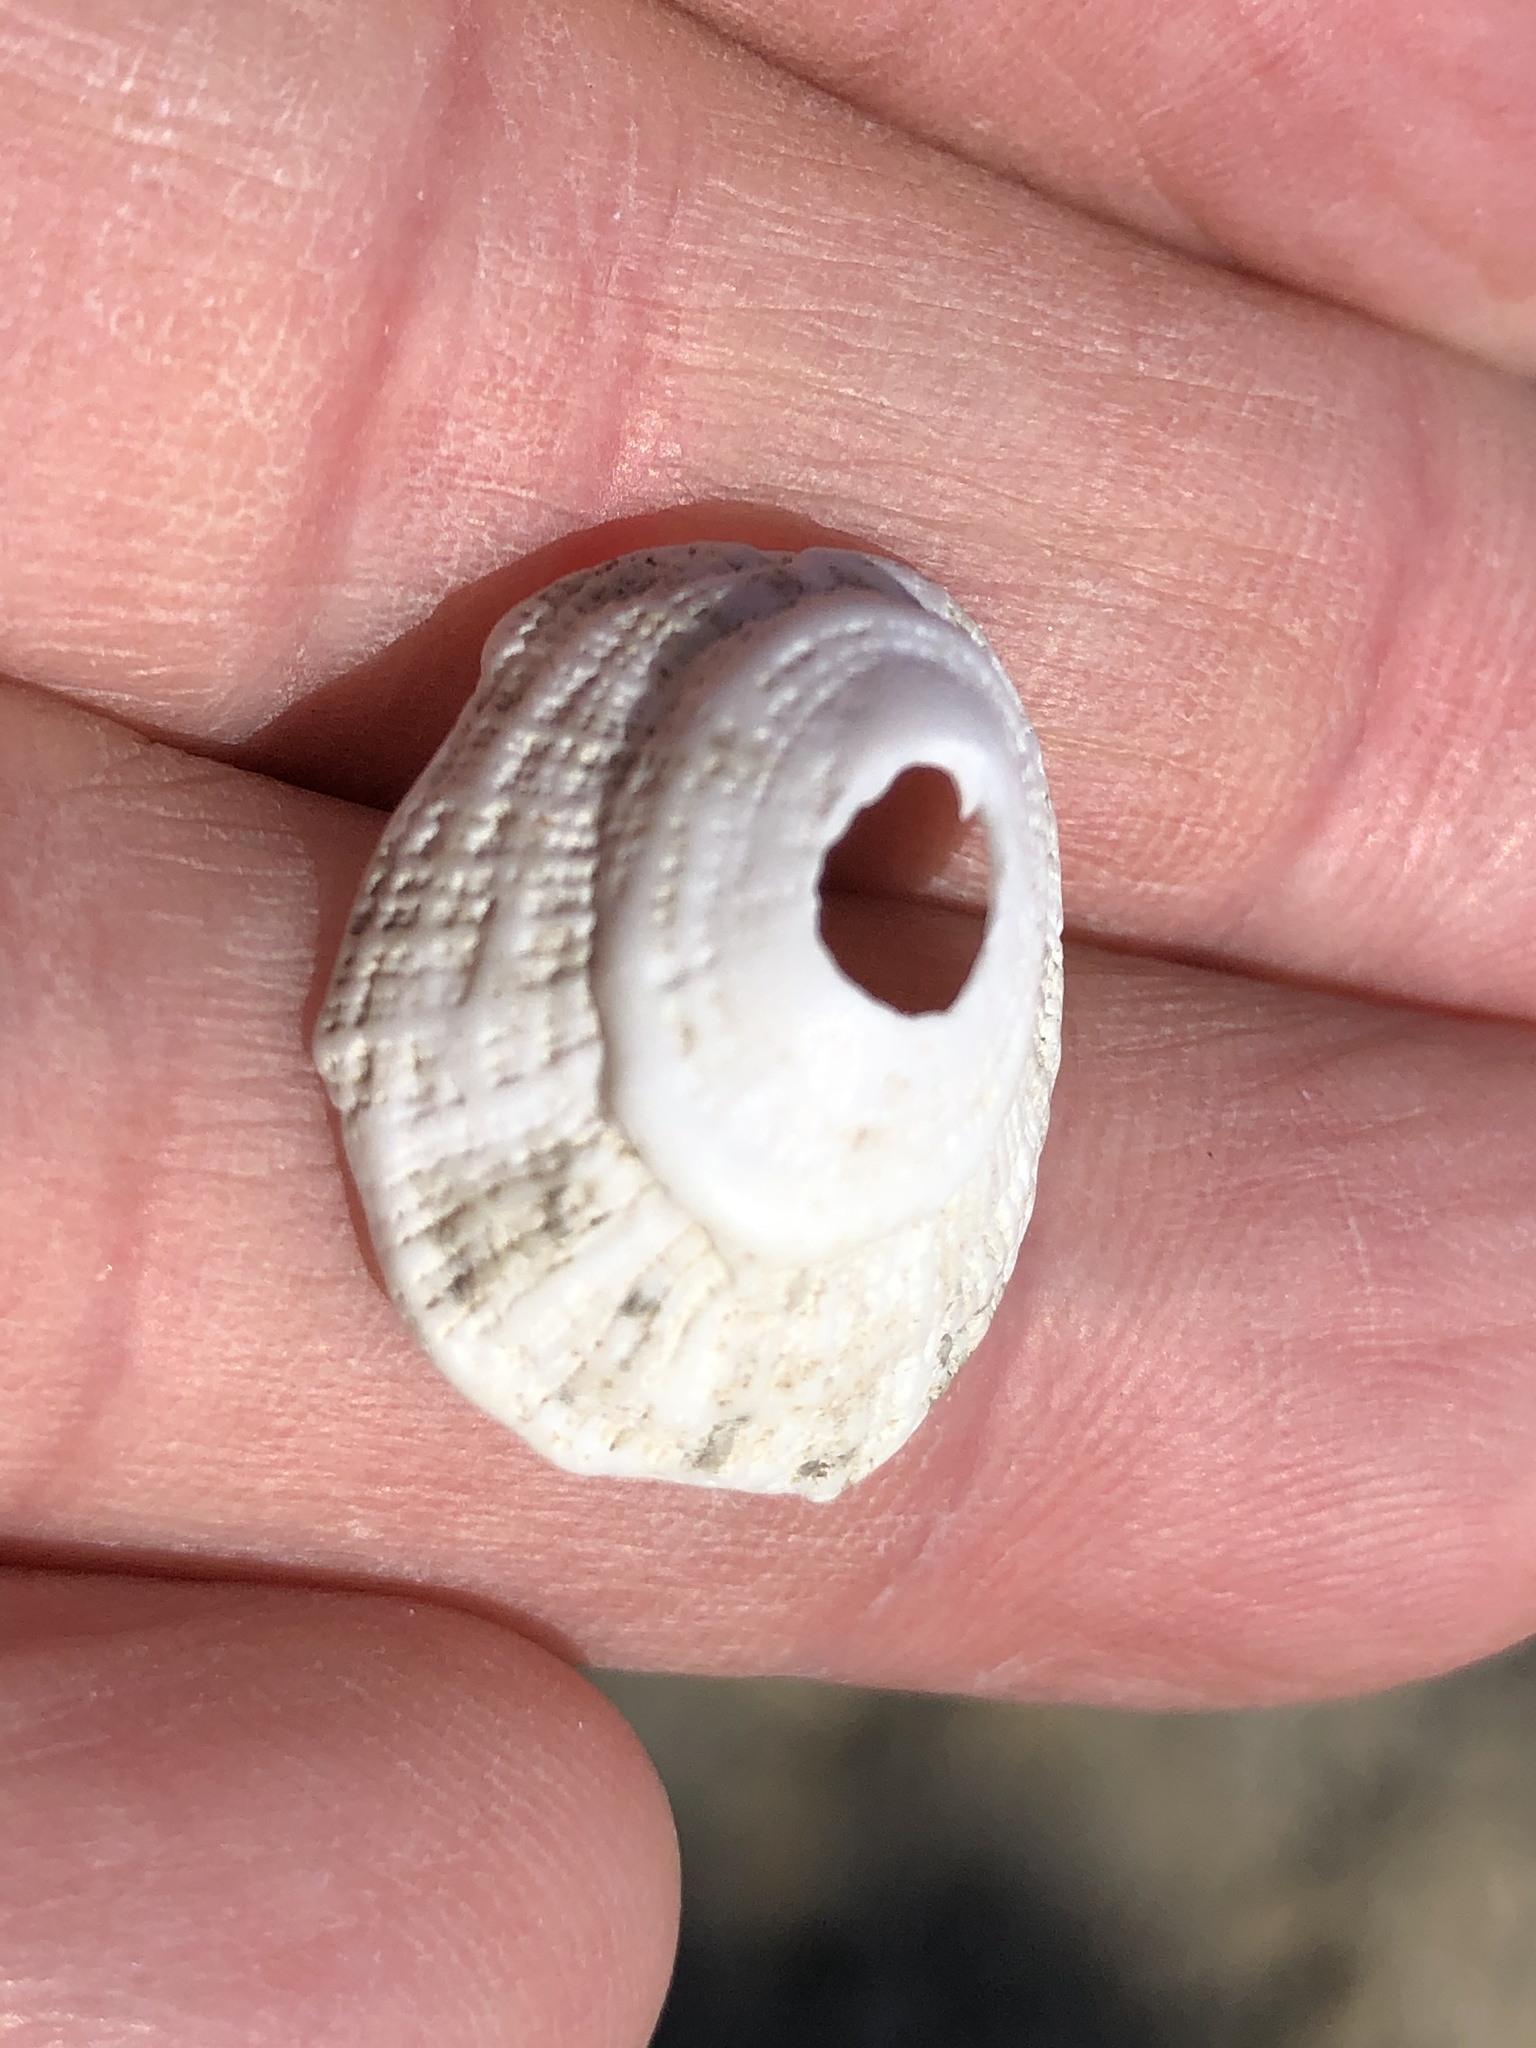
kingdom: Animalia
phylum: Mollusca
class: Gastropoda
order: Lepetellida
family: Fissurellidae
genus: Diodora
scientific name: Diodora aspera
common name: Rough keyhole limpet
